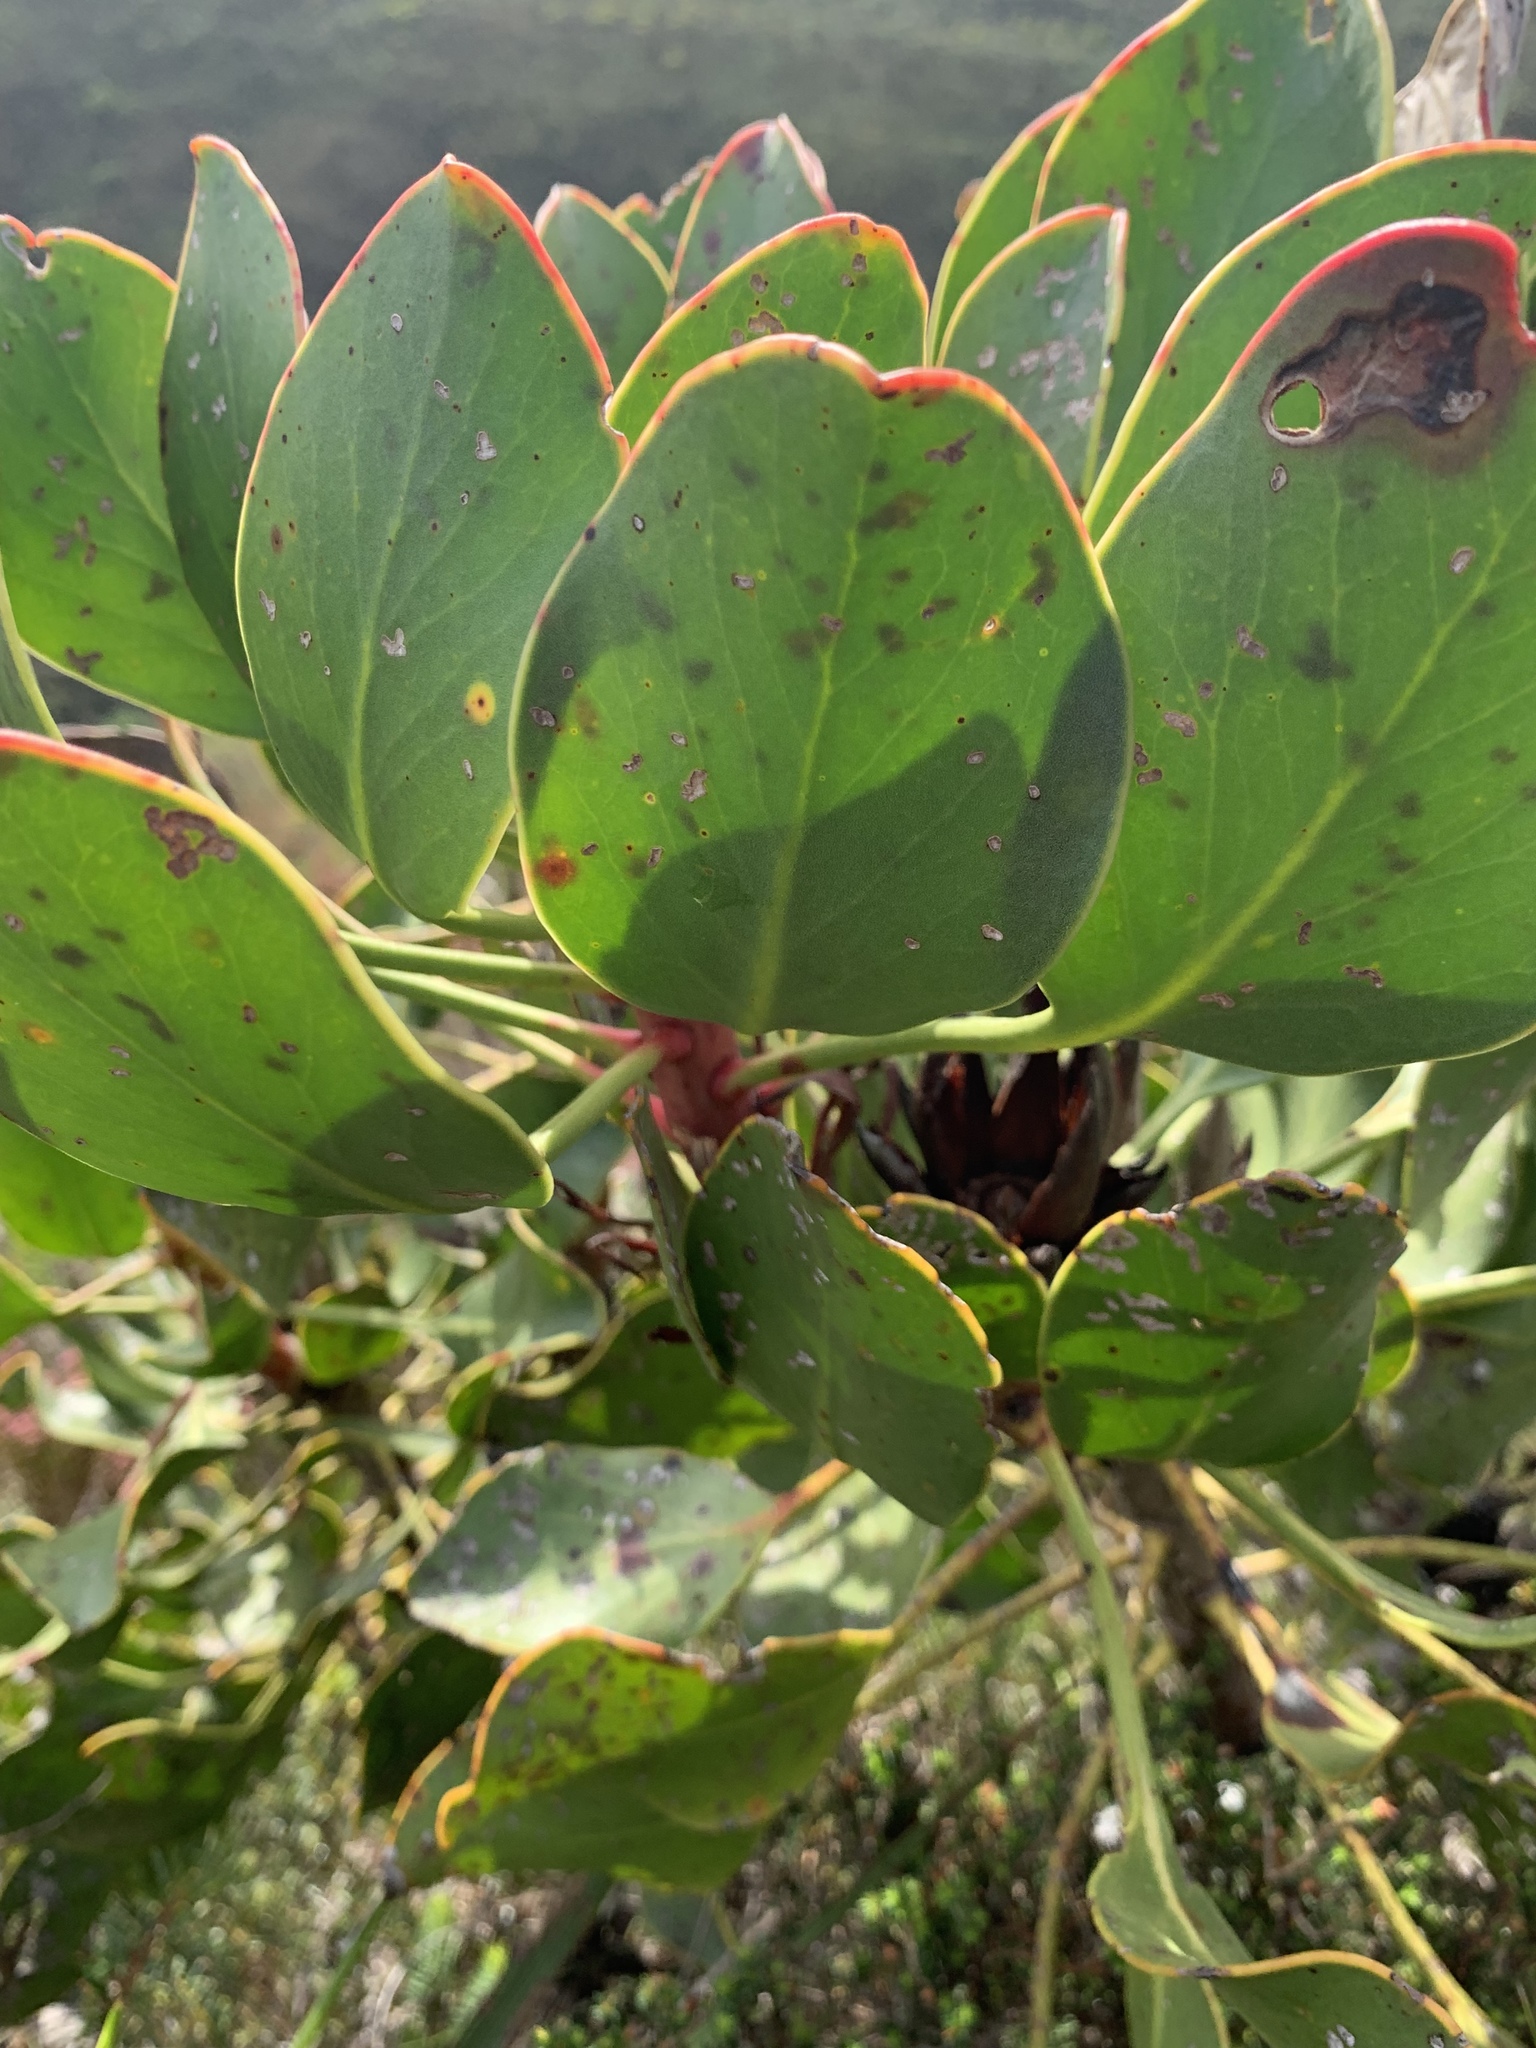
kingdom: Plantae
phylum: Tracheophyta
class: Magnoliopsida
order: Proteales
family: Proteaceae
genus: Protea
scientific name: Protea cynaroides
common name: King protea
